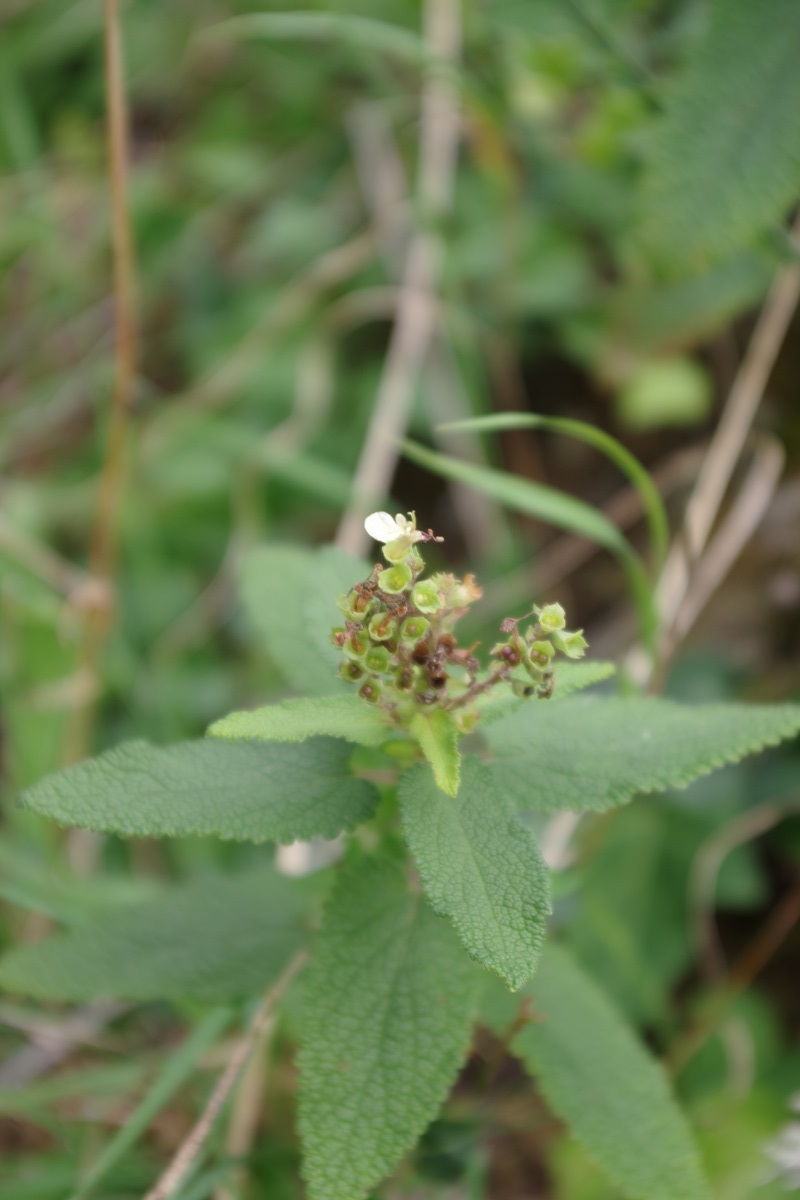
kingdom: Plantae
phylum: Tracheophyta
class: Magnoliopsida
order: Lamiales
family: Lamiaceae
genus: Teucrium
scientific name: Teucrium scorodonia
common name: Woodland germander
